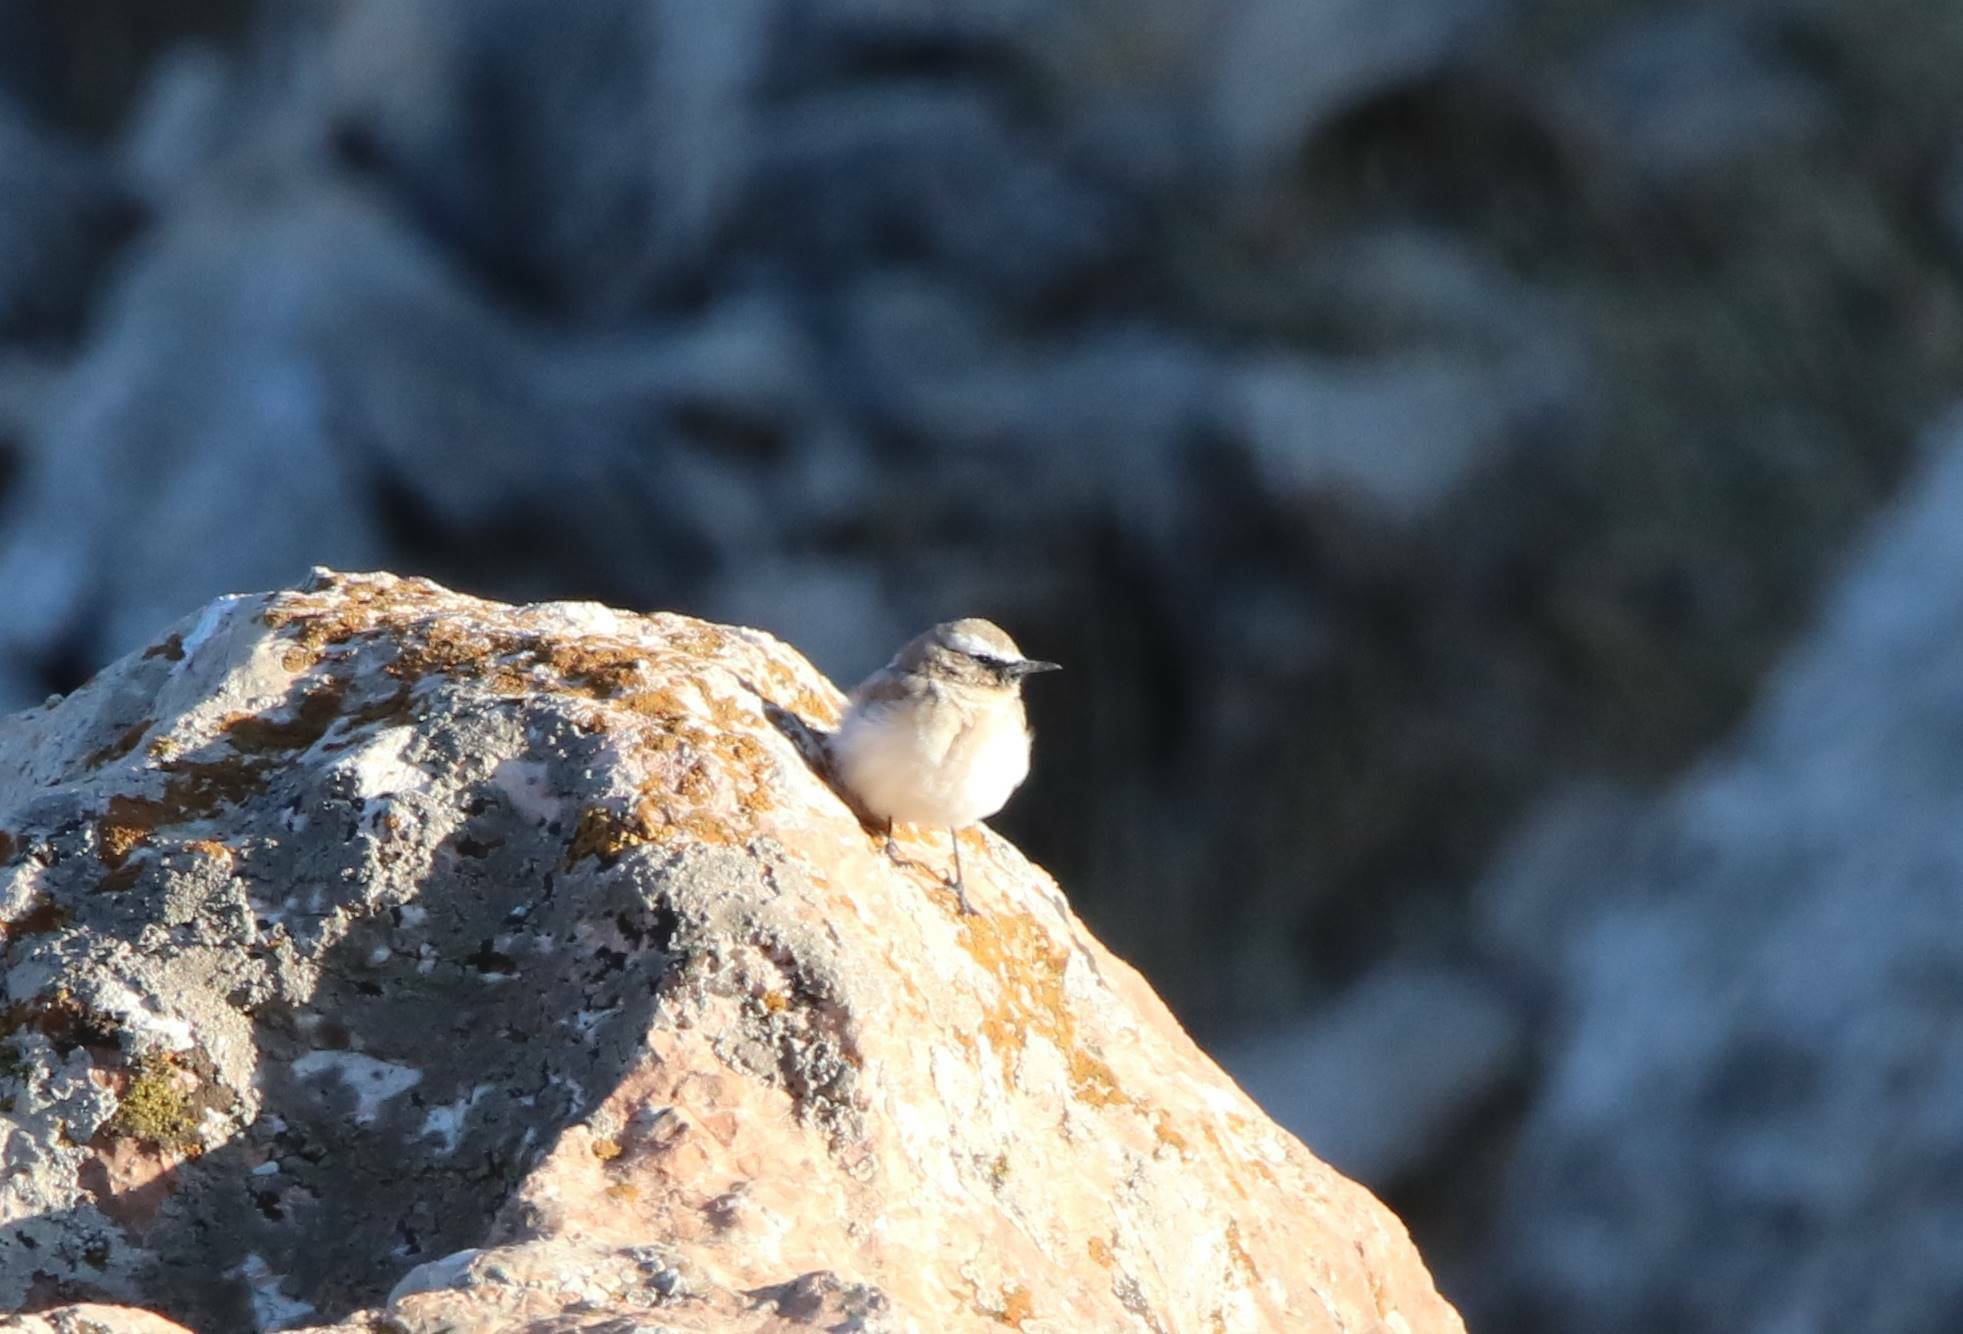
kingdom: Animalia
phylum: Chordata
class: Aves
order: Passeriformes
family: Muscicapidae
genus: Oenanthe
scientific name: Oenanthe oenanthe
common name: Northern wheatear
